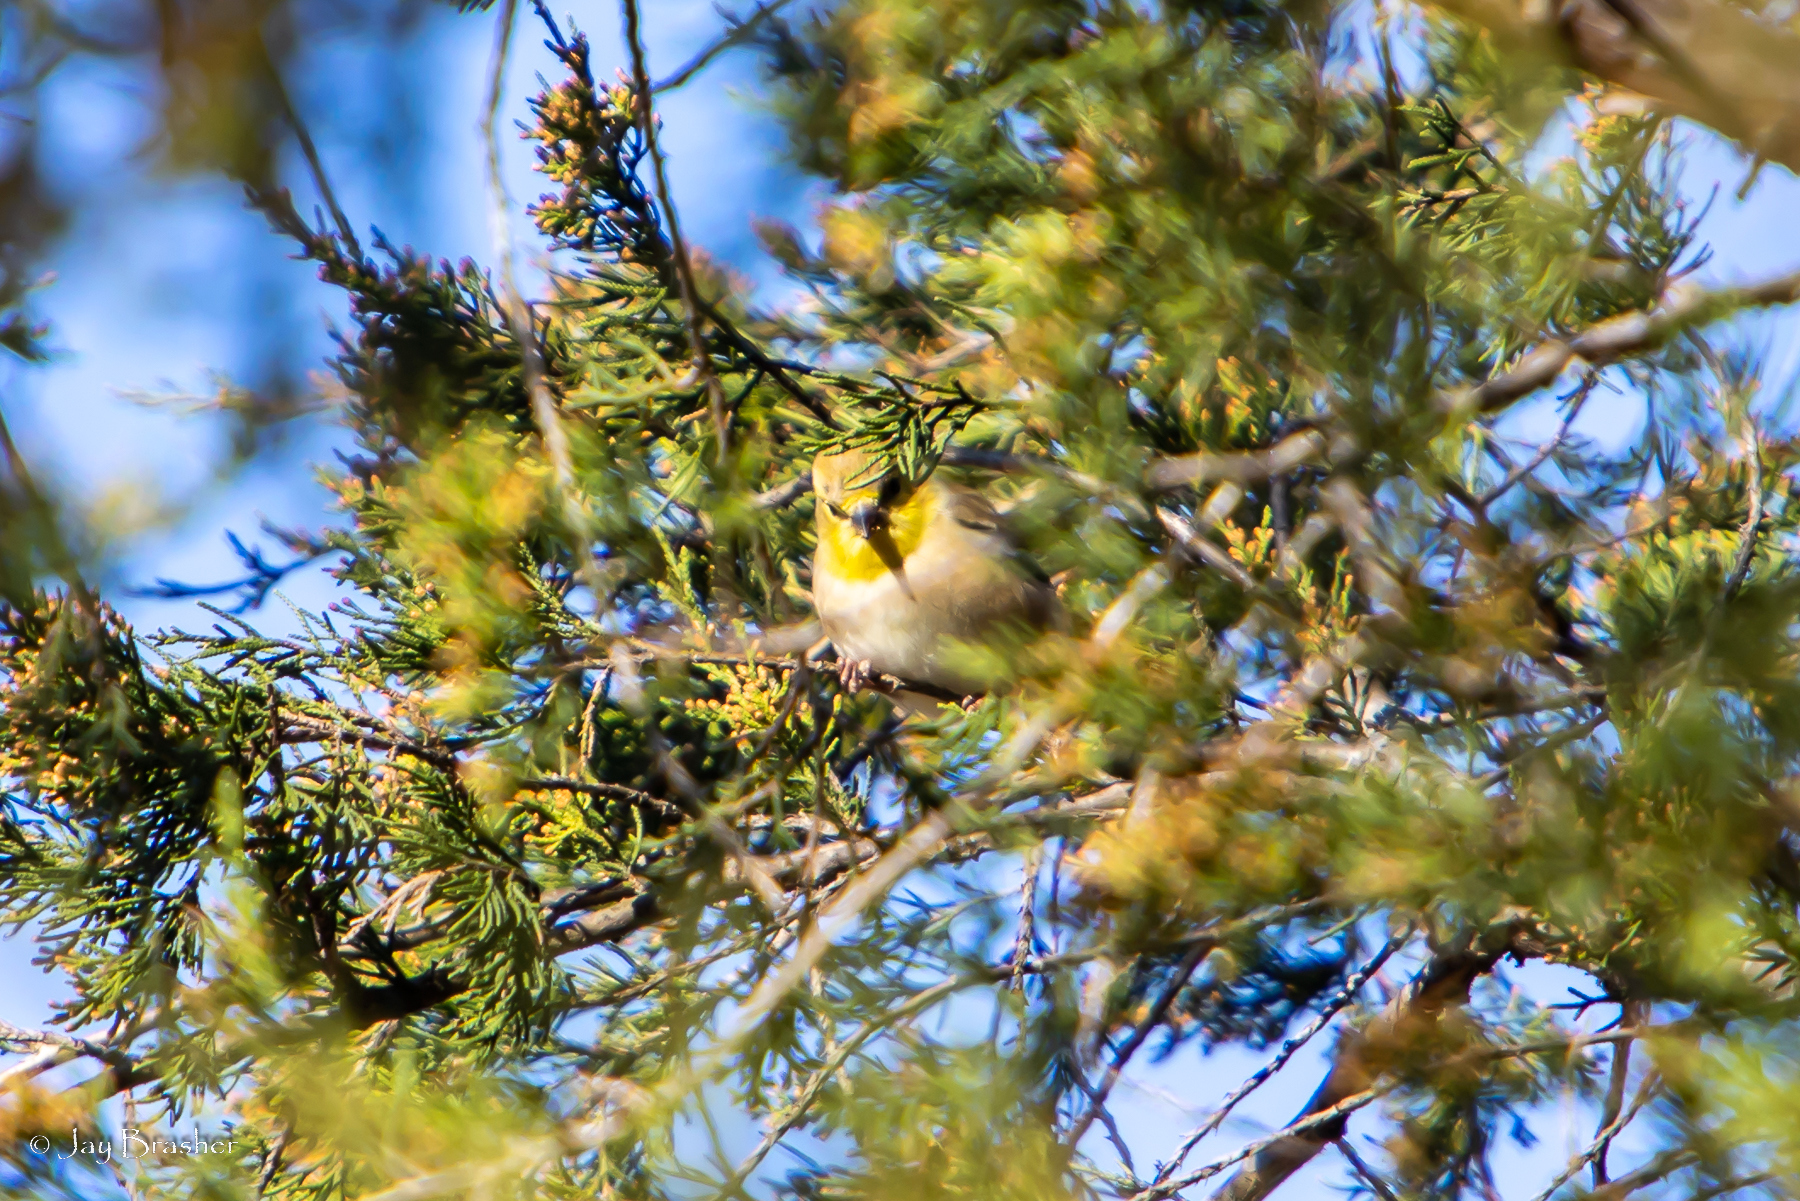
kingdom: Animalia
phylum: Chordata
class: Aves
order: Passeriformes
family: Fringillidae
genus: Spinus
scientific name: Spinus tristis
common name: American goldfinch
